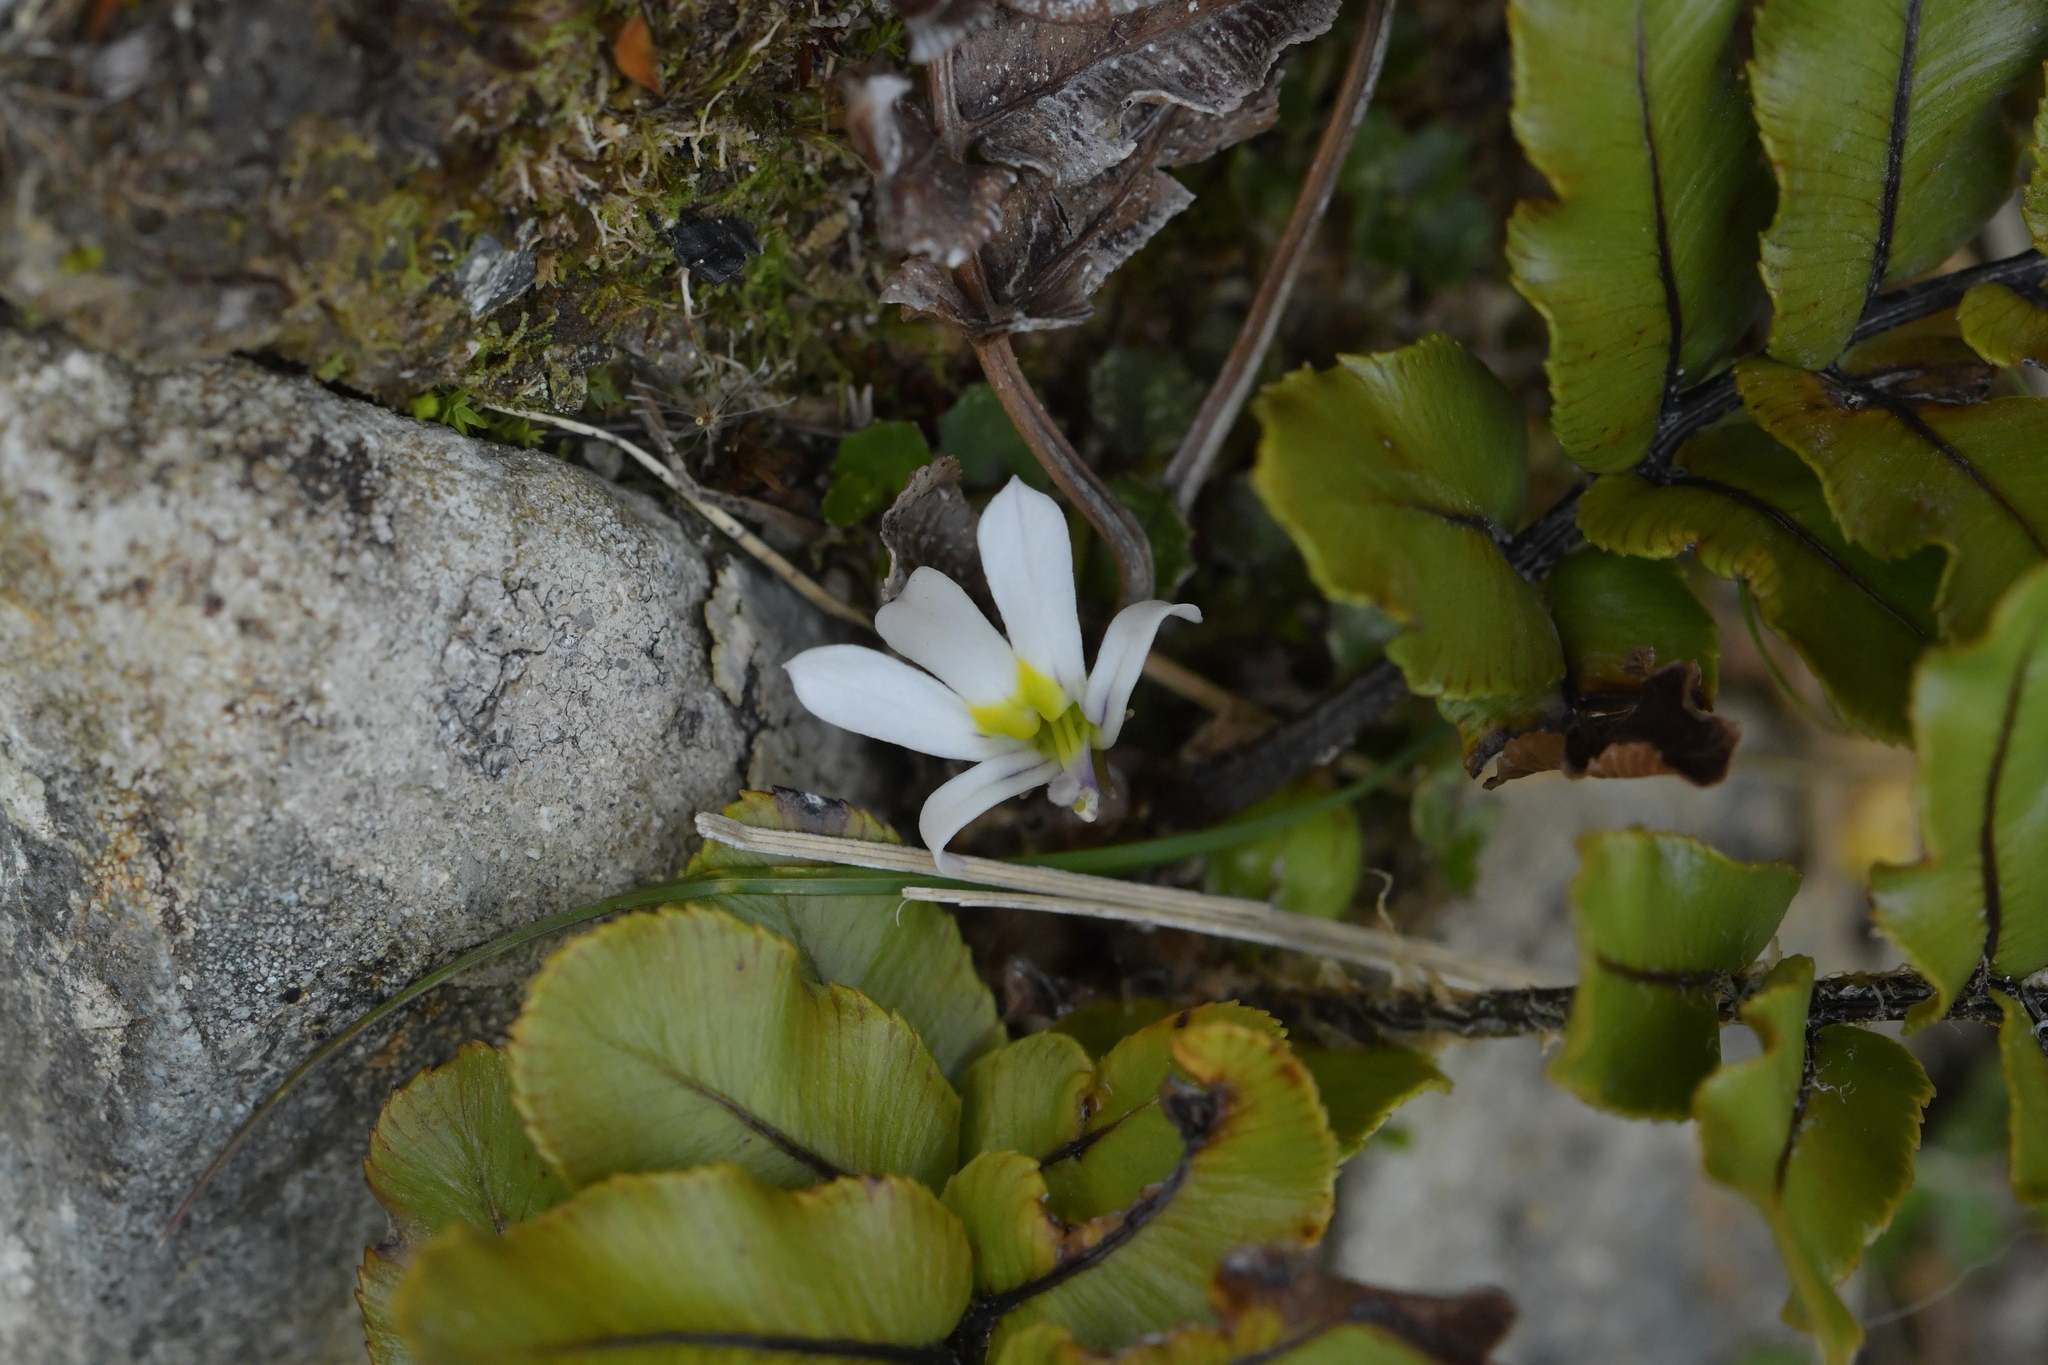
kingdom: Plantae
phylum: Tracheophyta
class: Magnoliopsida
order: Asterales
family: Campanulaceae
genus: Lobelia
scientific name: Lobelia angulata
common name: Lawn lobelia
